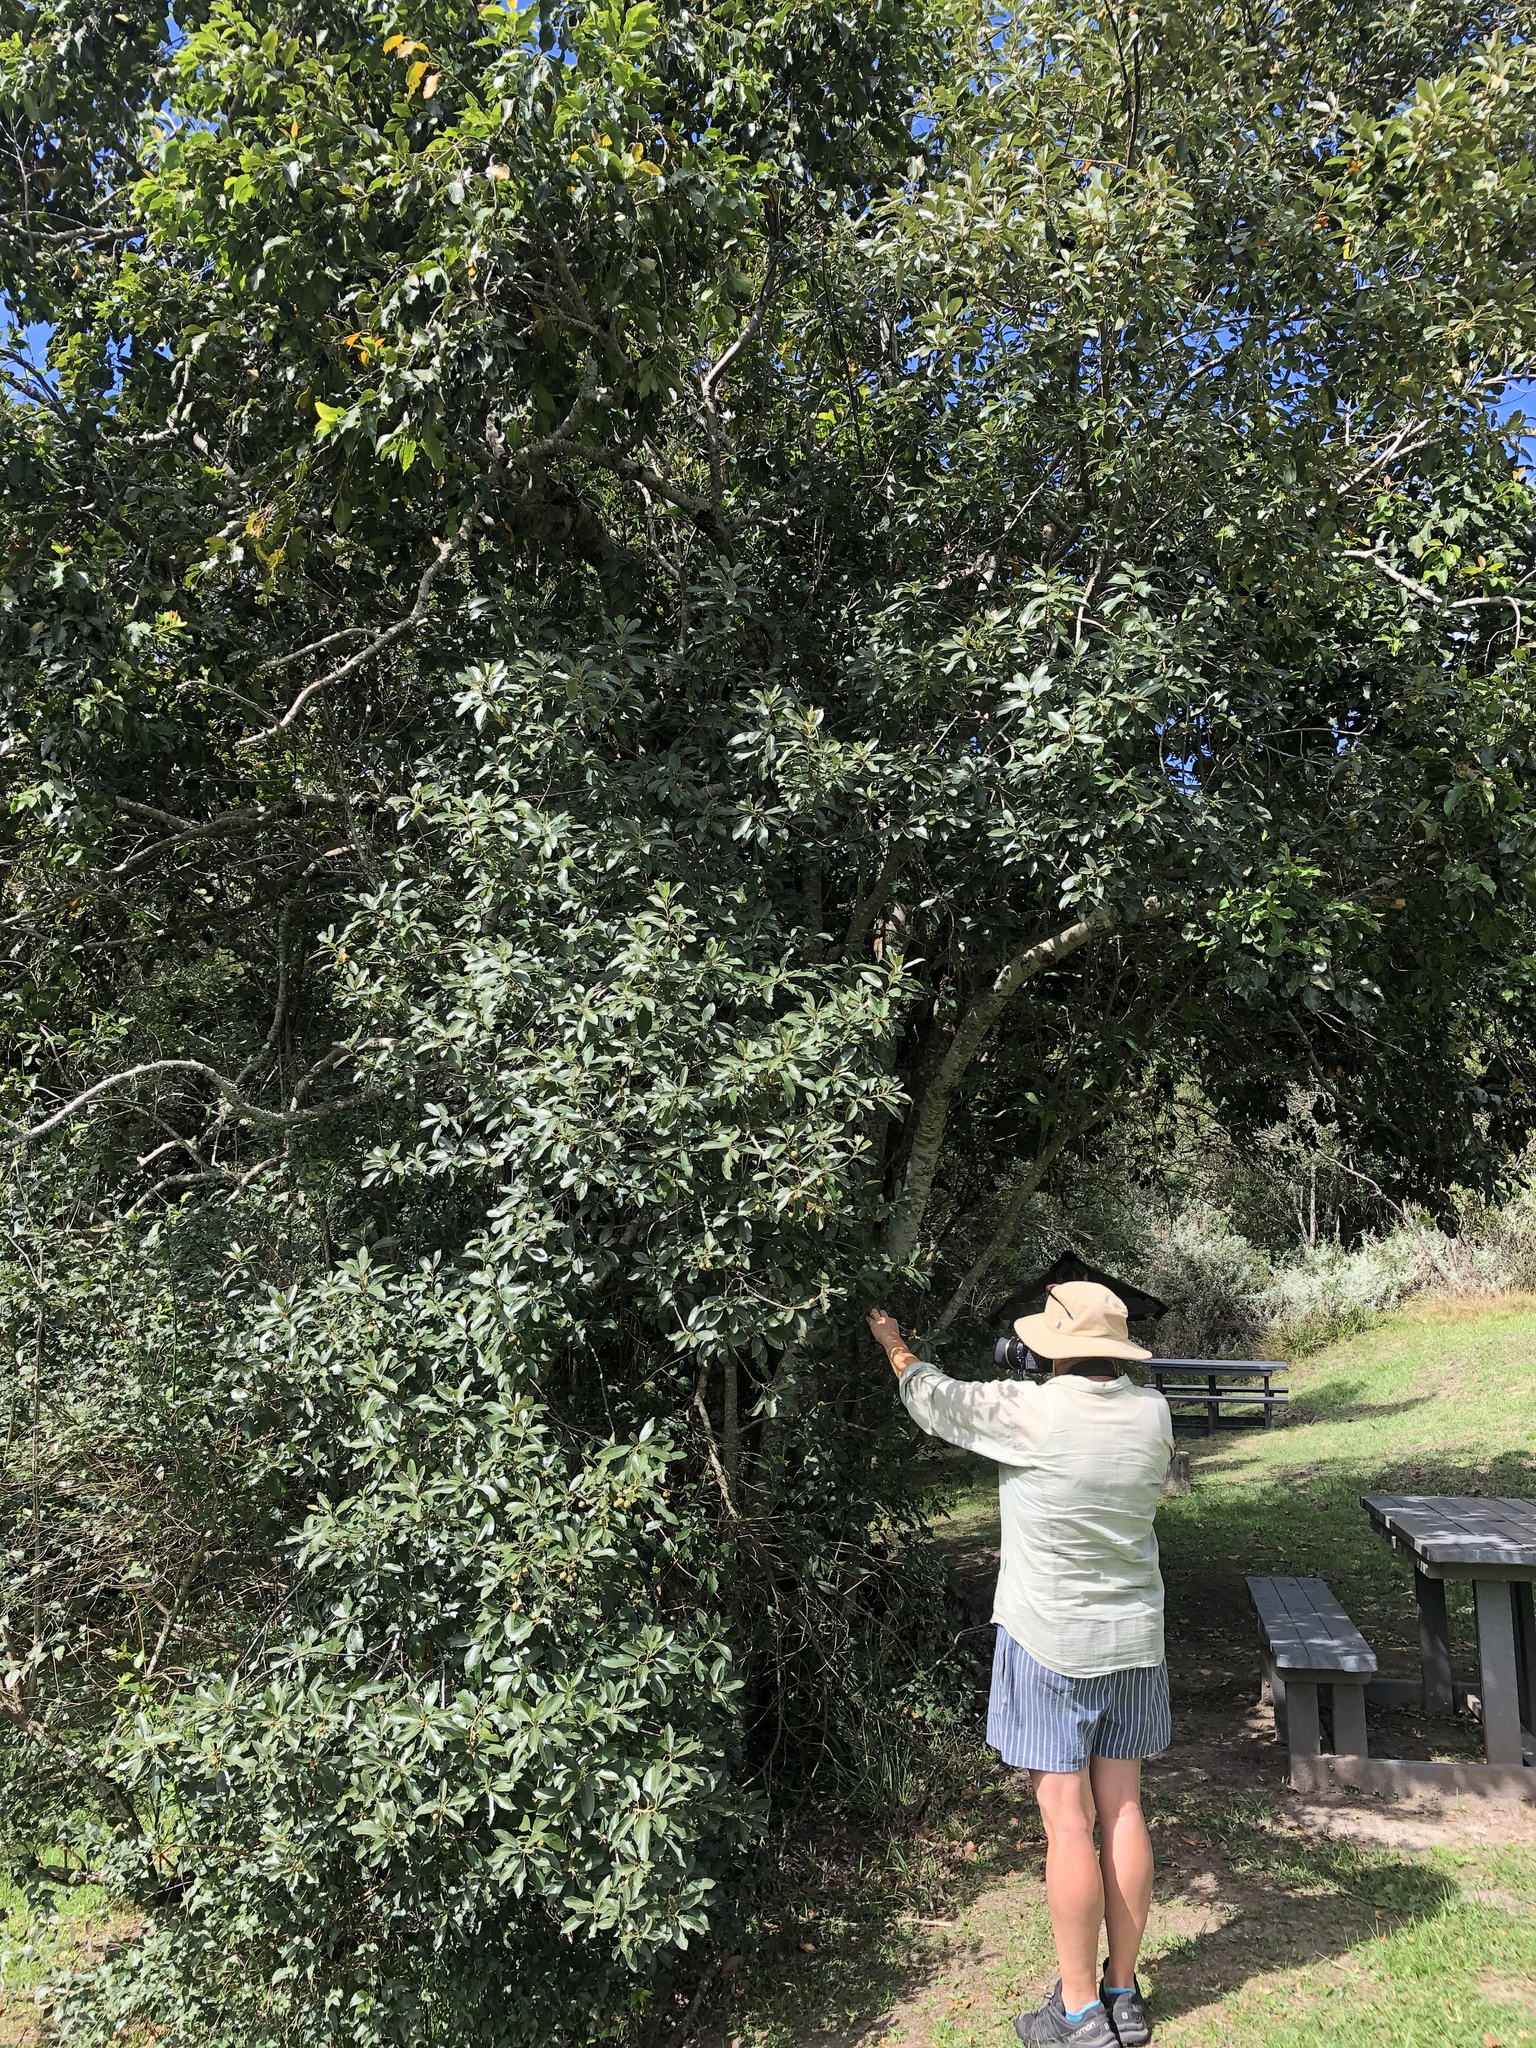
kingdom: Plantae
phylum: Tracheophyta
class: Magnoliopsida
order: Malpighiales
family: Achariaceae
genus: Kiggelaria
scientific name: Kiggelaria africana
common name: Wild peach
